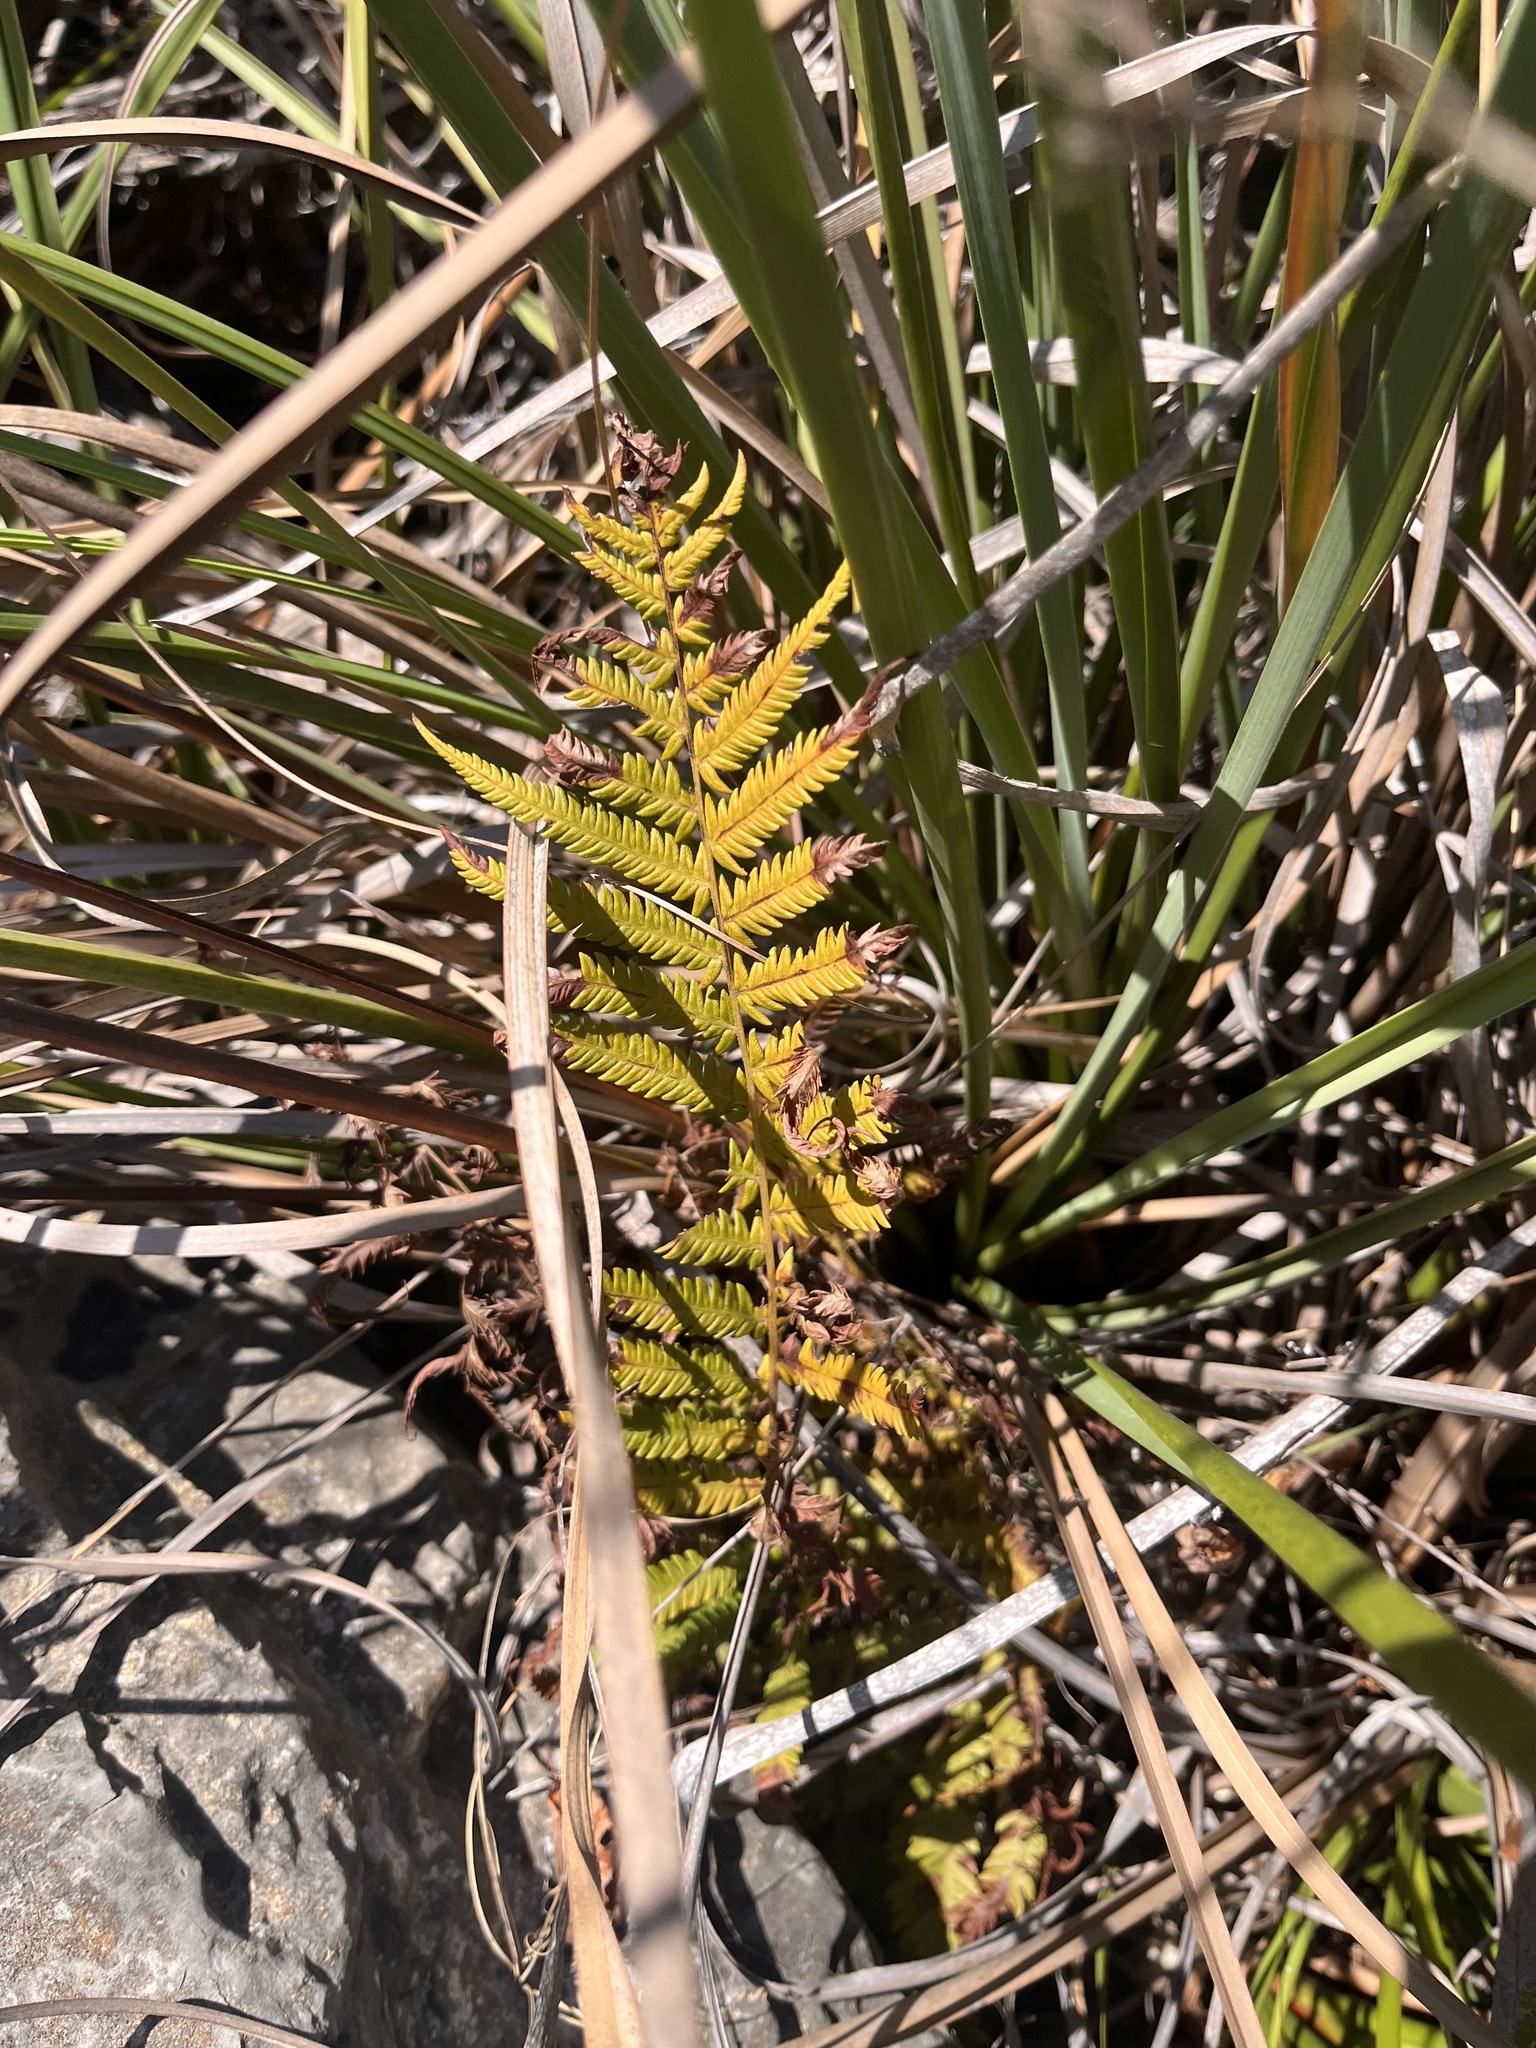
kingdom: Plantae
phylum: Tracheophyta
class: Polypodiopsida
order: Polypodiales
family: Thelypteridaceae
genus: Pelazoneuron
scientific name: Pelazoneuron ovatum
